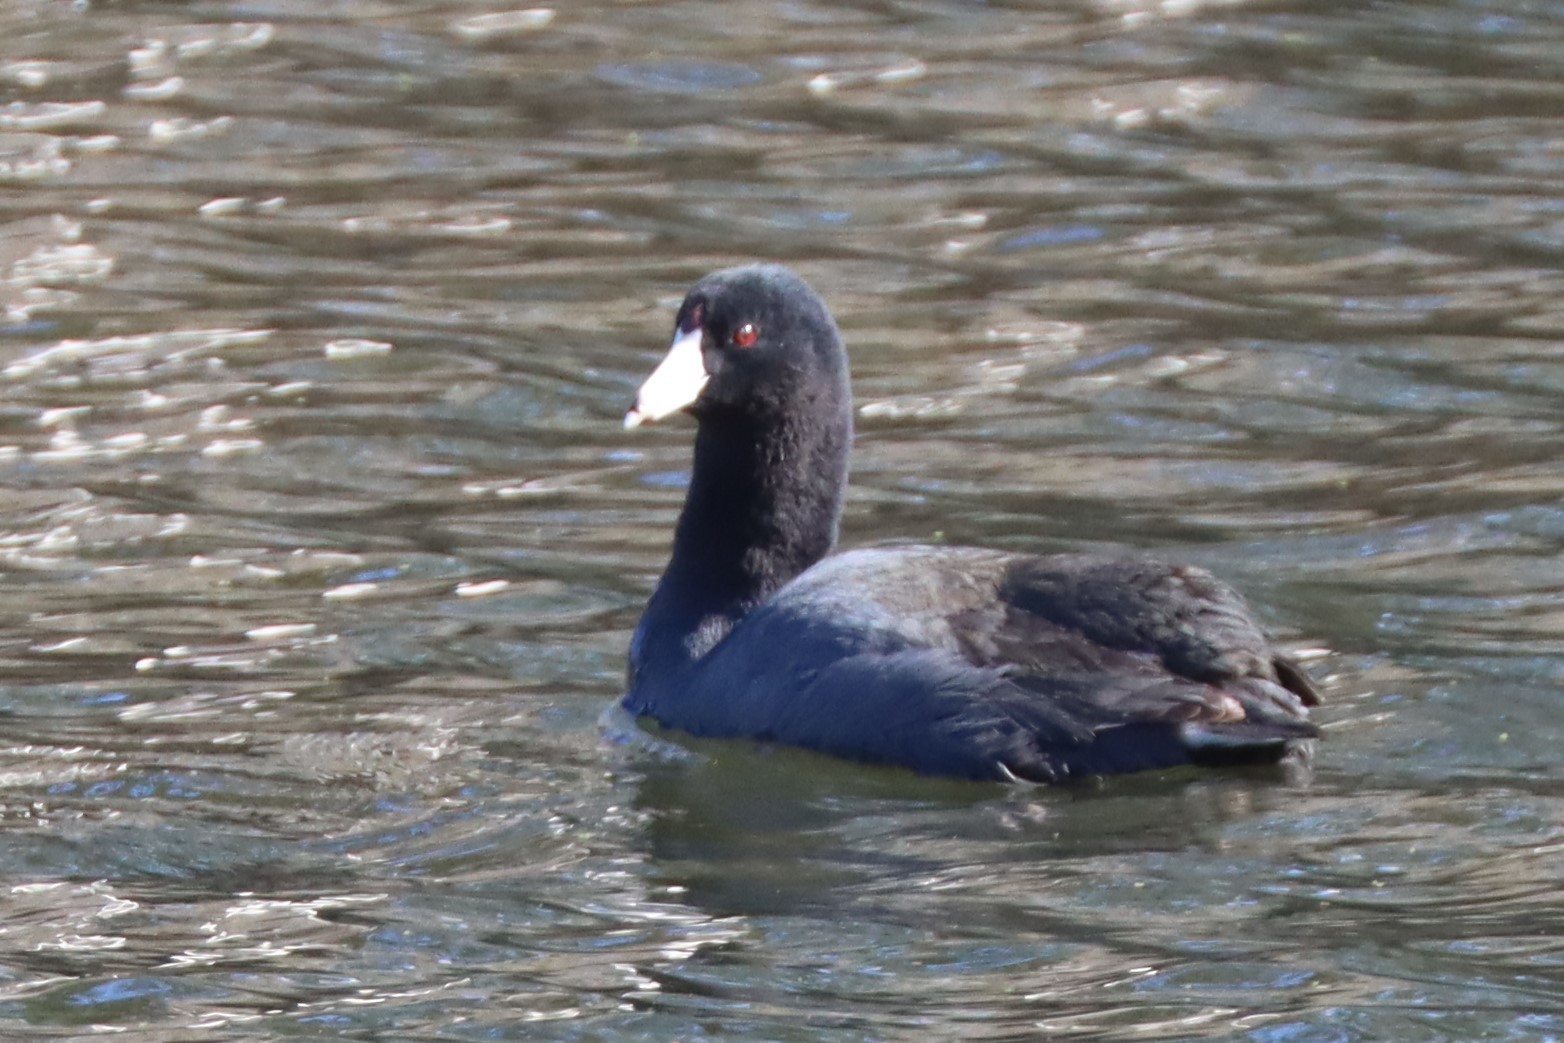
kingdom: Animalia
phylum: Chordata
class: Aves
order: Gruiformes
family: Rallidae
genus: Fulica
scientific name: Fulica americana
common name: American coot
